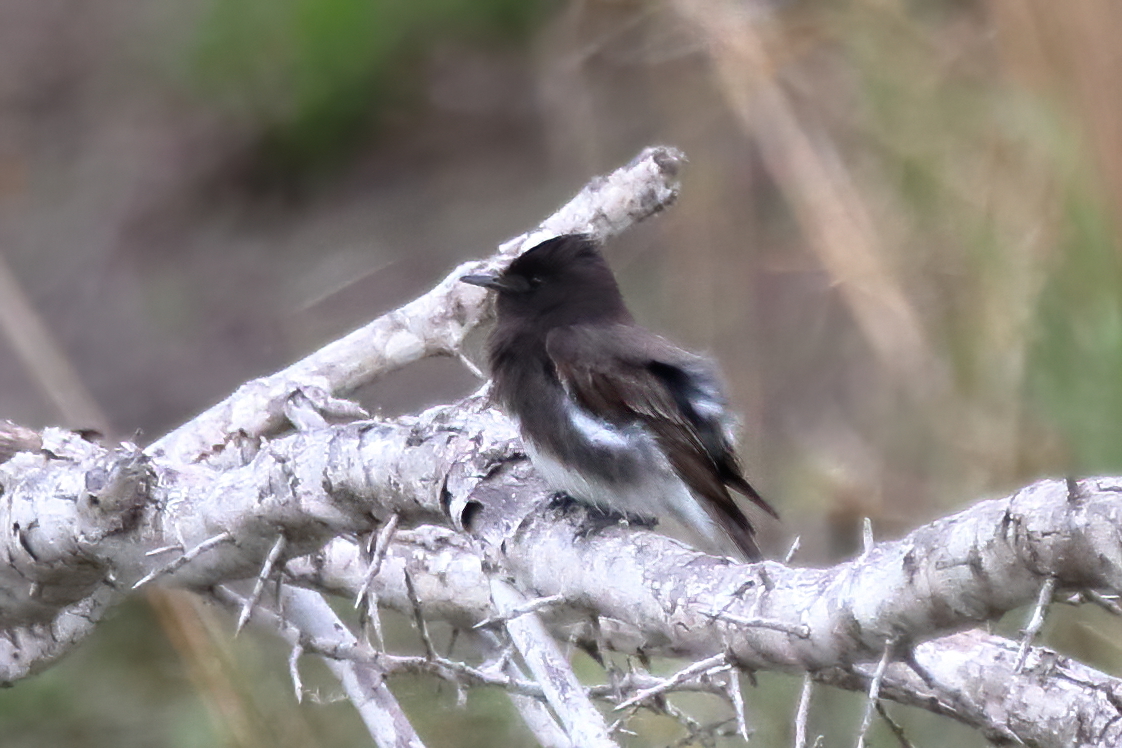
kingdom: Animalia
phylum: Chordata
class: Aves
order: Passeriformes
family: Tyrannidae
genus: Sayornis
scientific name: Sayornis nigricans
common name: Black phoebe
